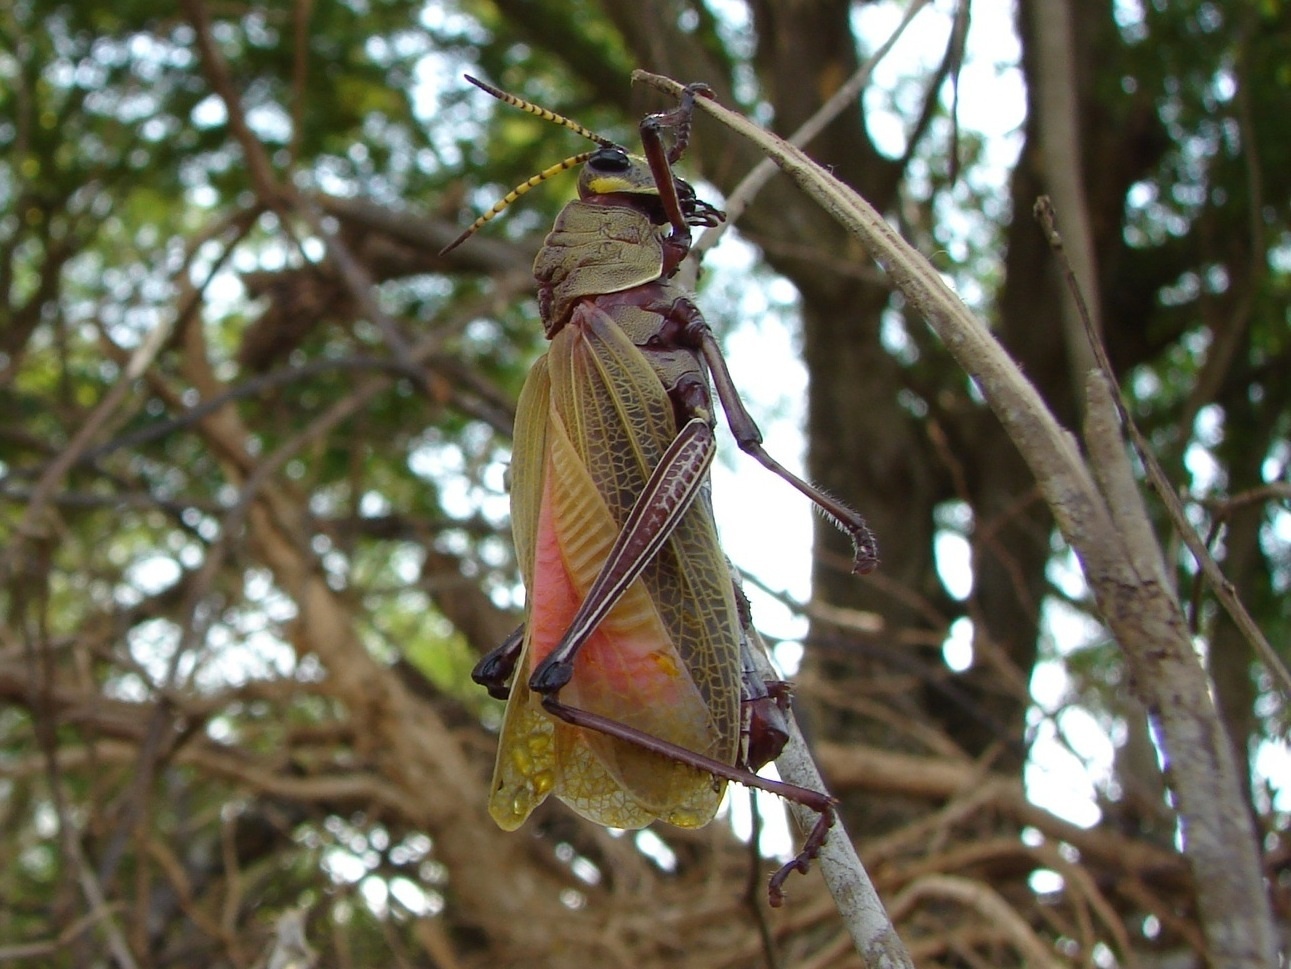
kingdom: Animalia
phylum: Arthropoda
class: Insecta
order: Orthoptera
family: Romaleidae
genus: Romalea
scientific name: Romalea
